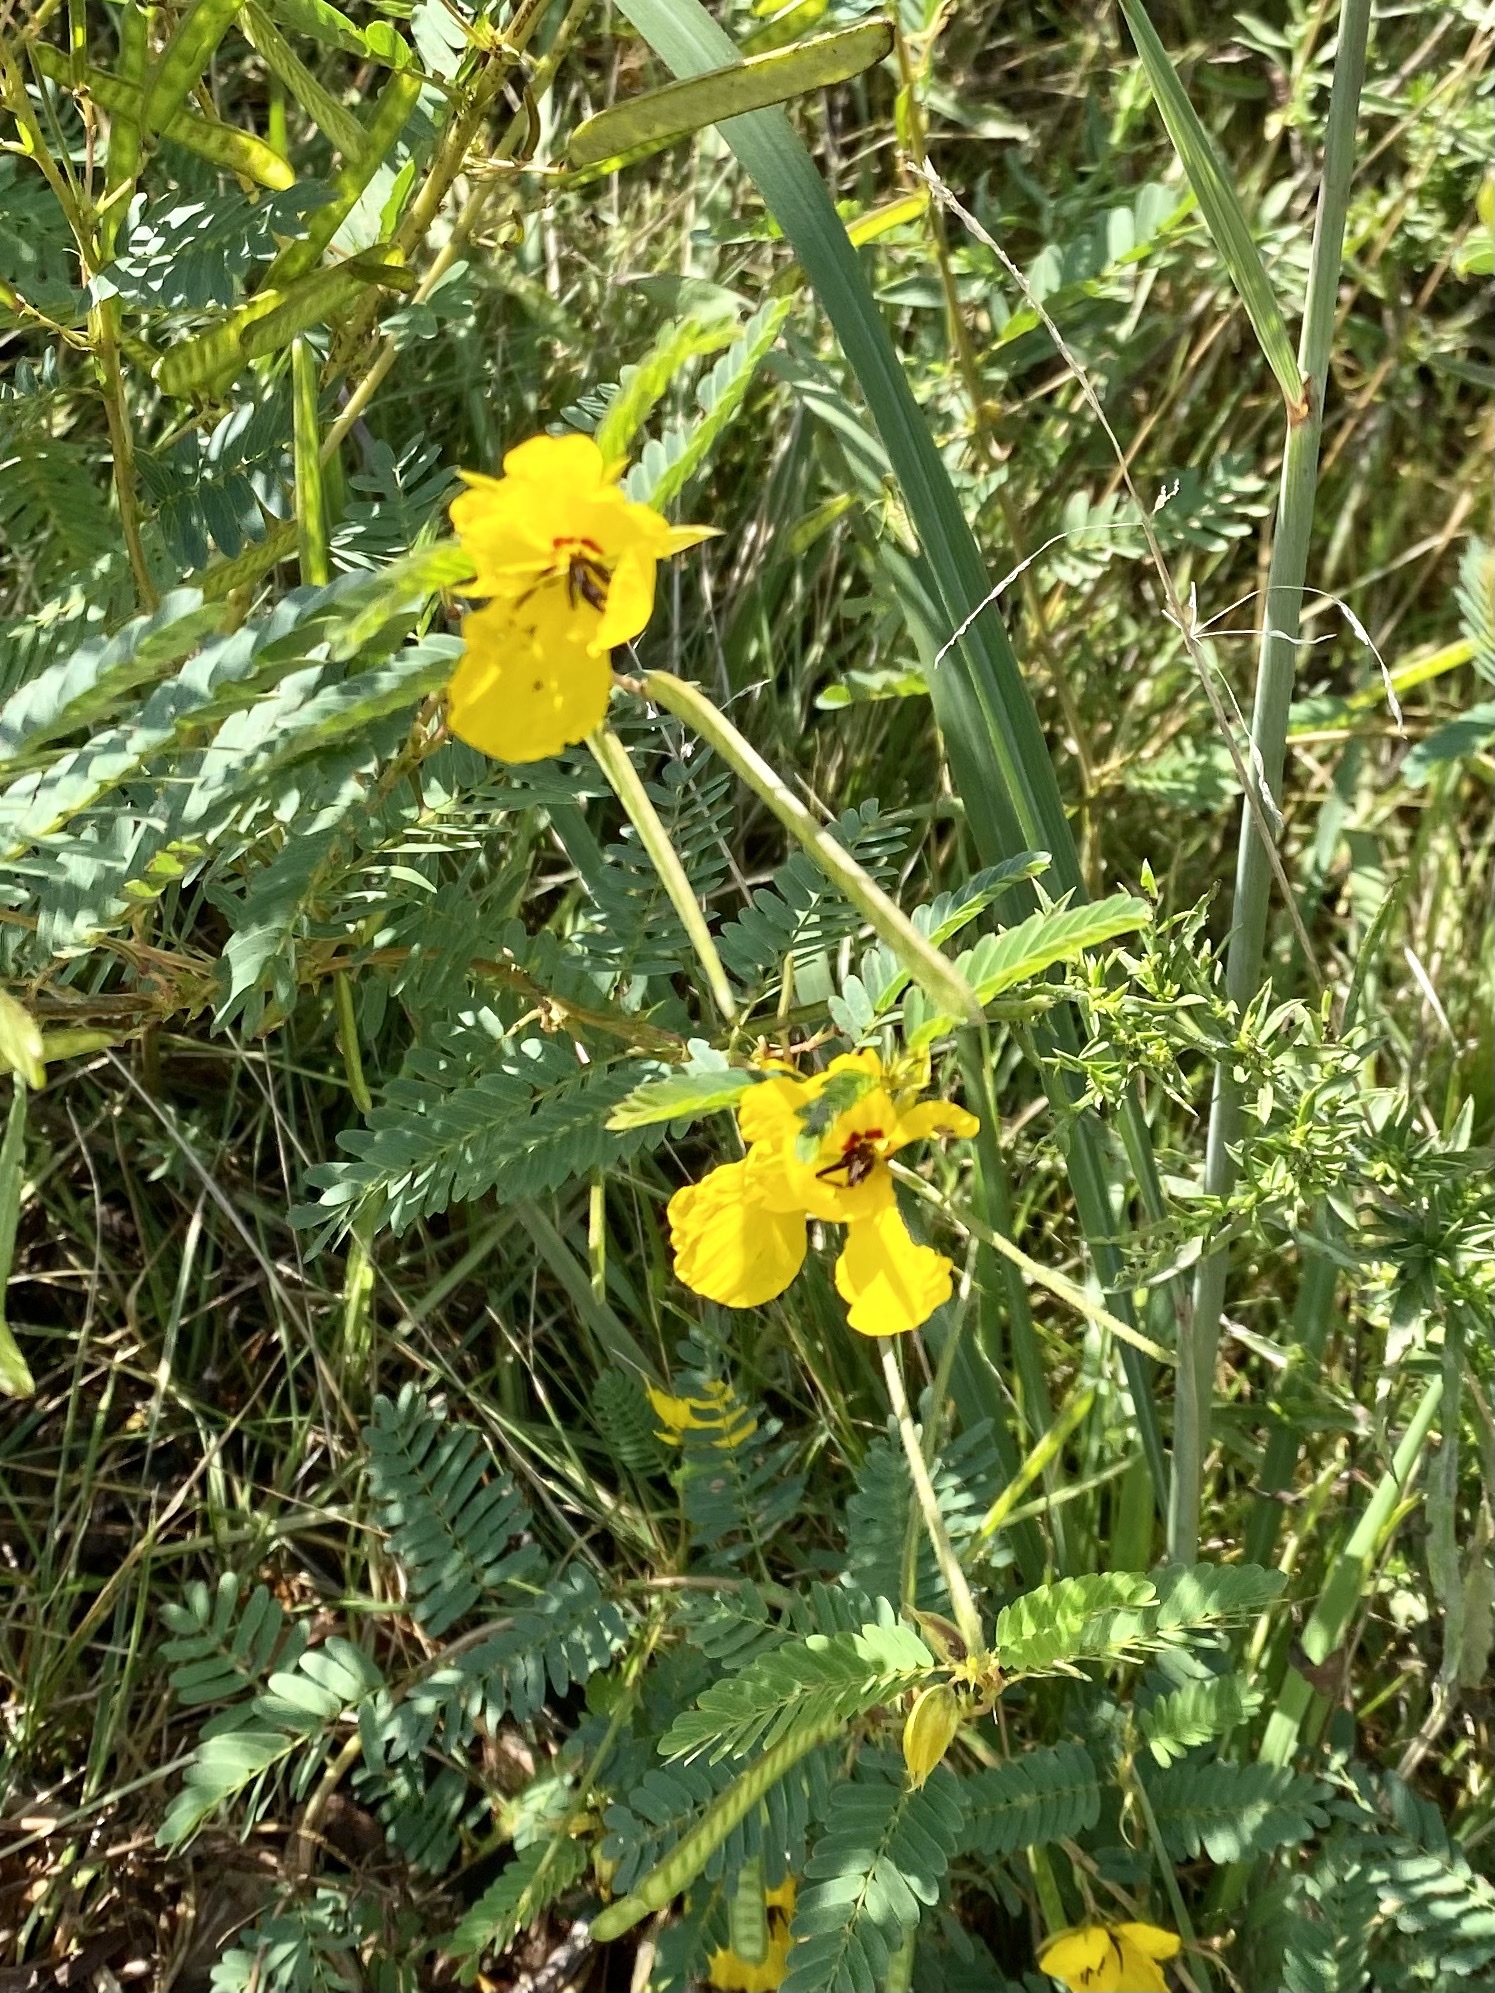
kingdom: Plantae
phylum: Tracheophyta
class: Magnoliopsida
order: Fabales
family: Fabaceae
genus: Chamaecrista
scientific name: Chamaecrista fasciculata
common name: Golden cassia
